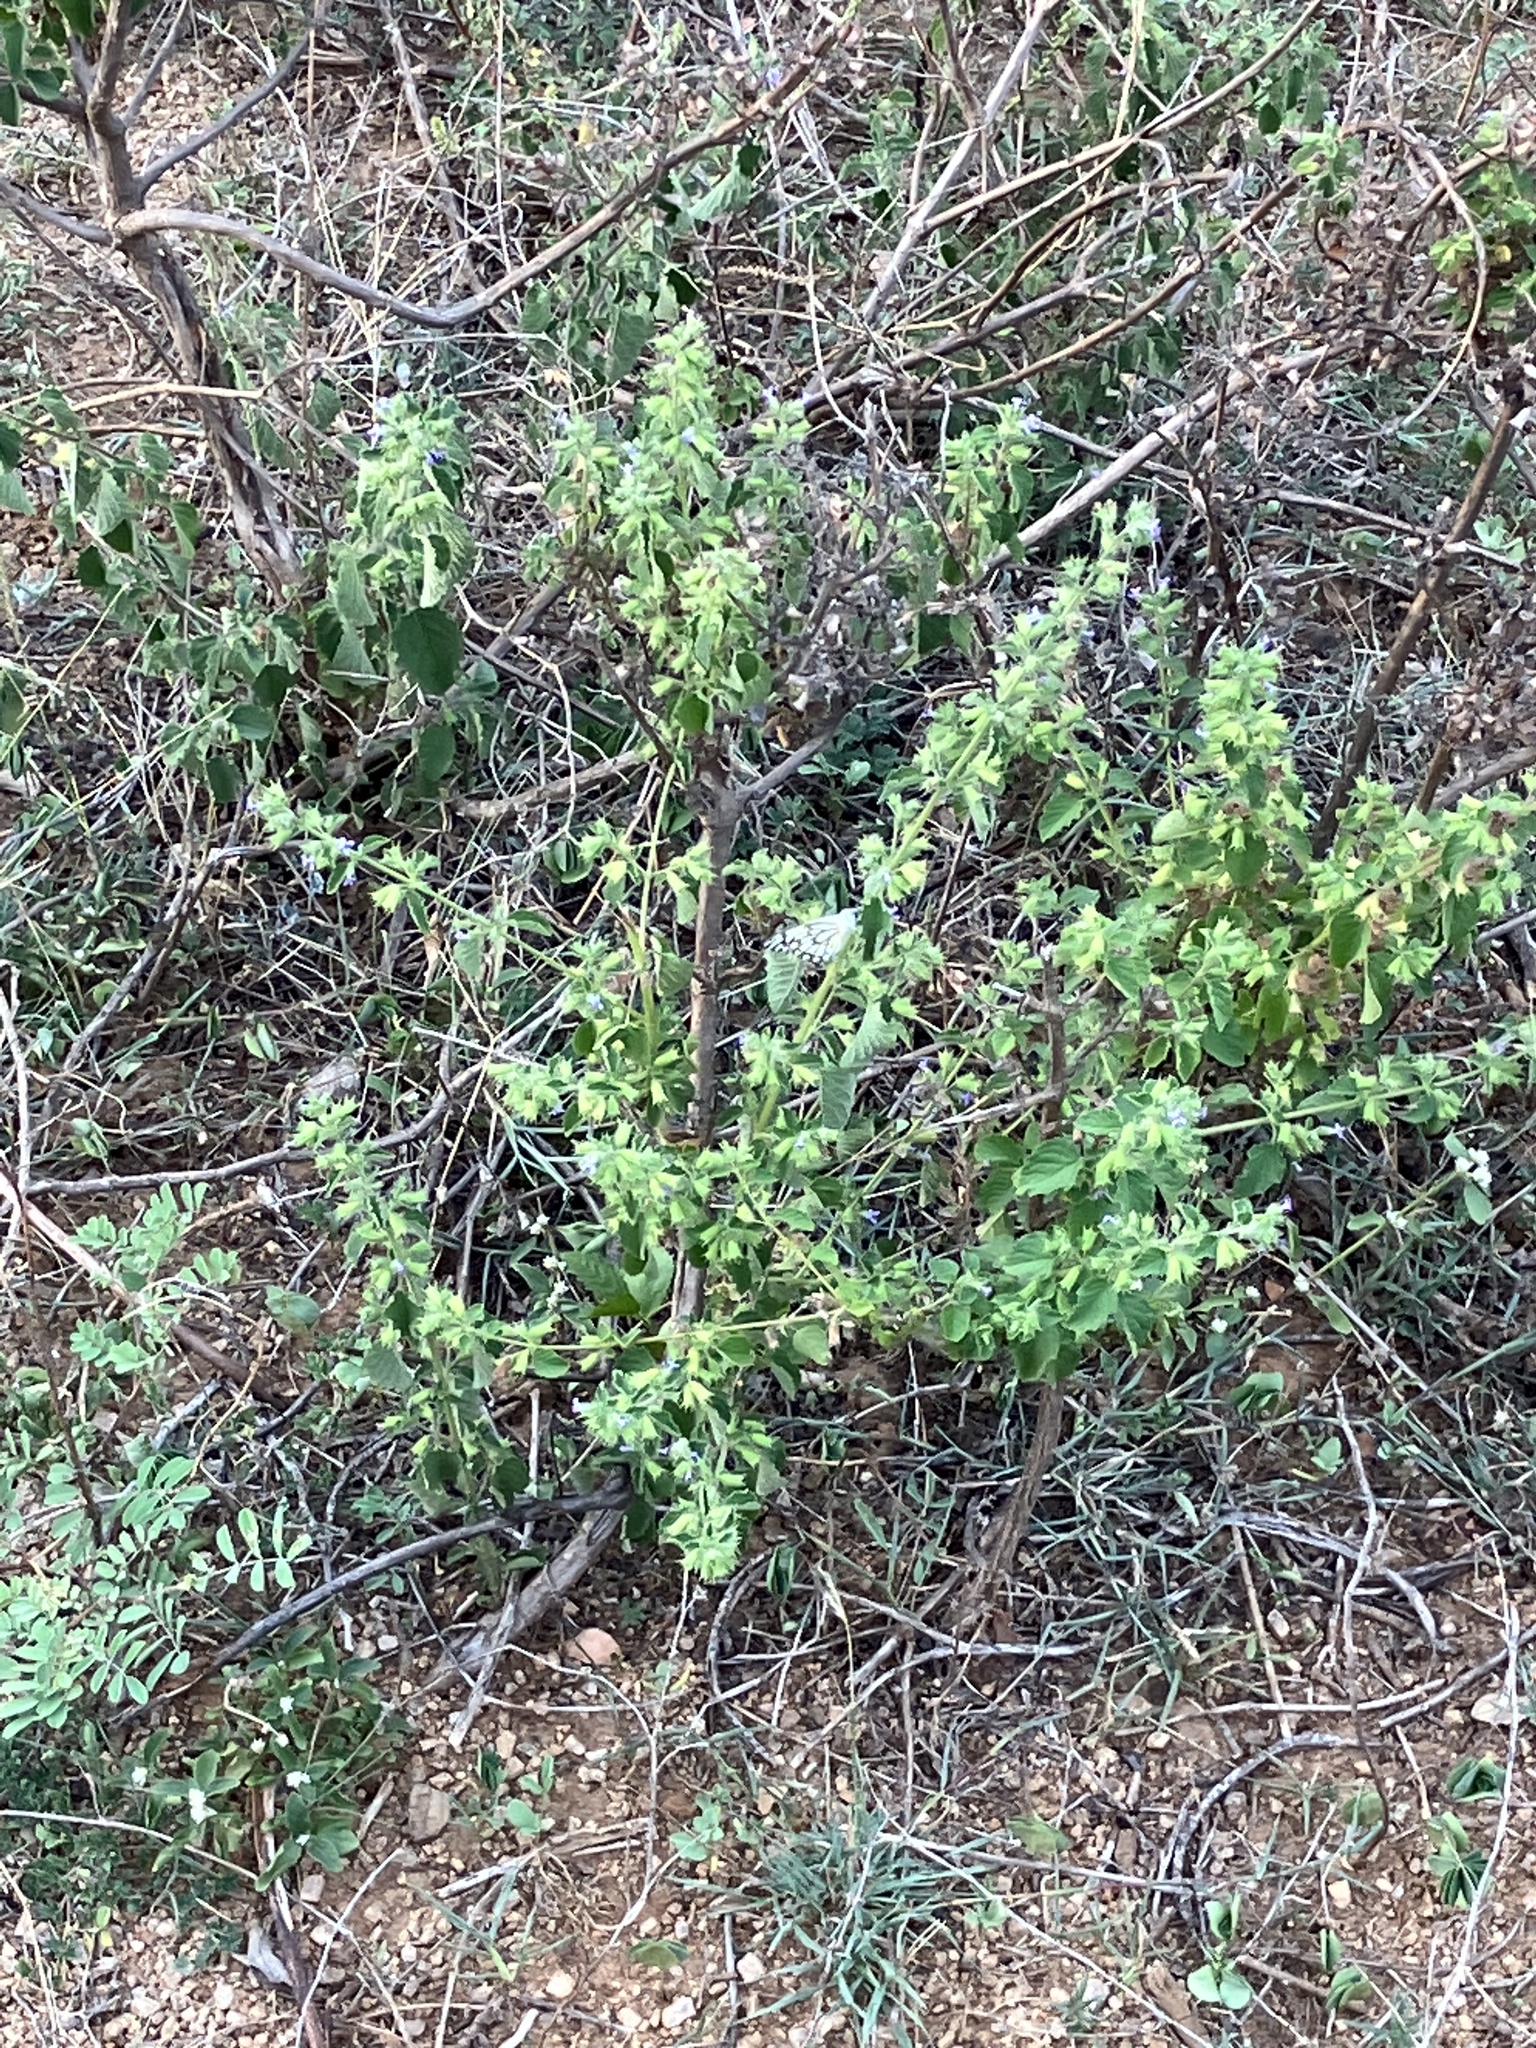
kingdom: Animalia
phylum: Arthropoda
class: Insecta
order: Lepidoptera
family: Pieridae
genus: Belenois
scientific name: Belenois aurota
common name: Brown-veined white
